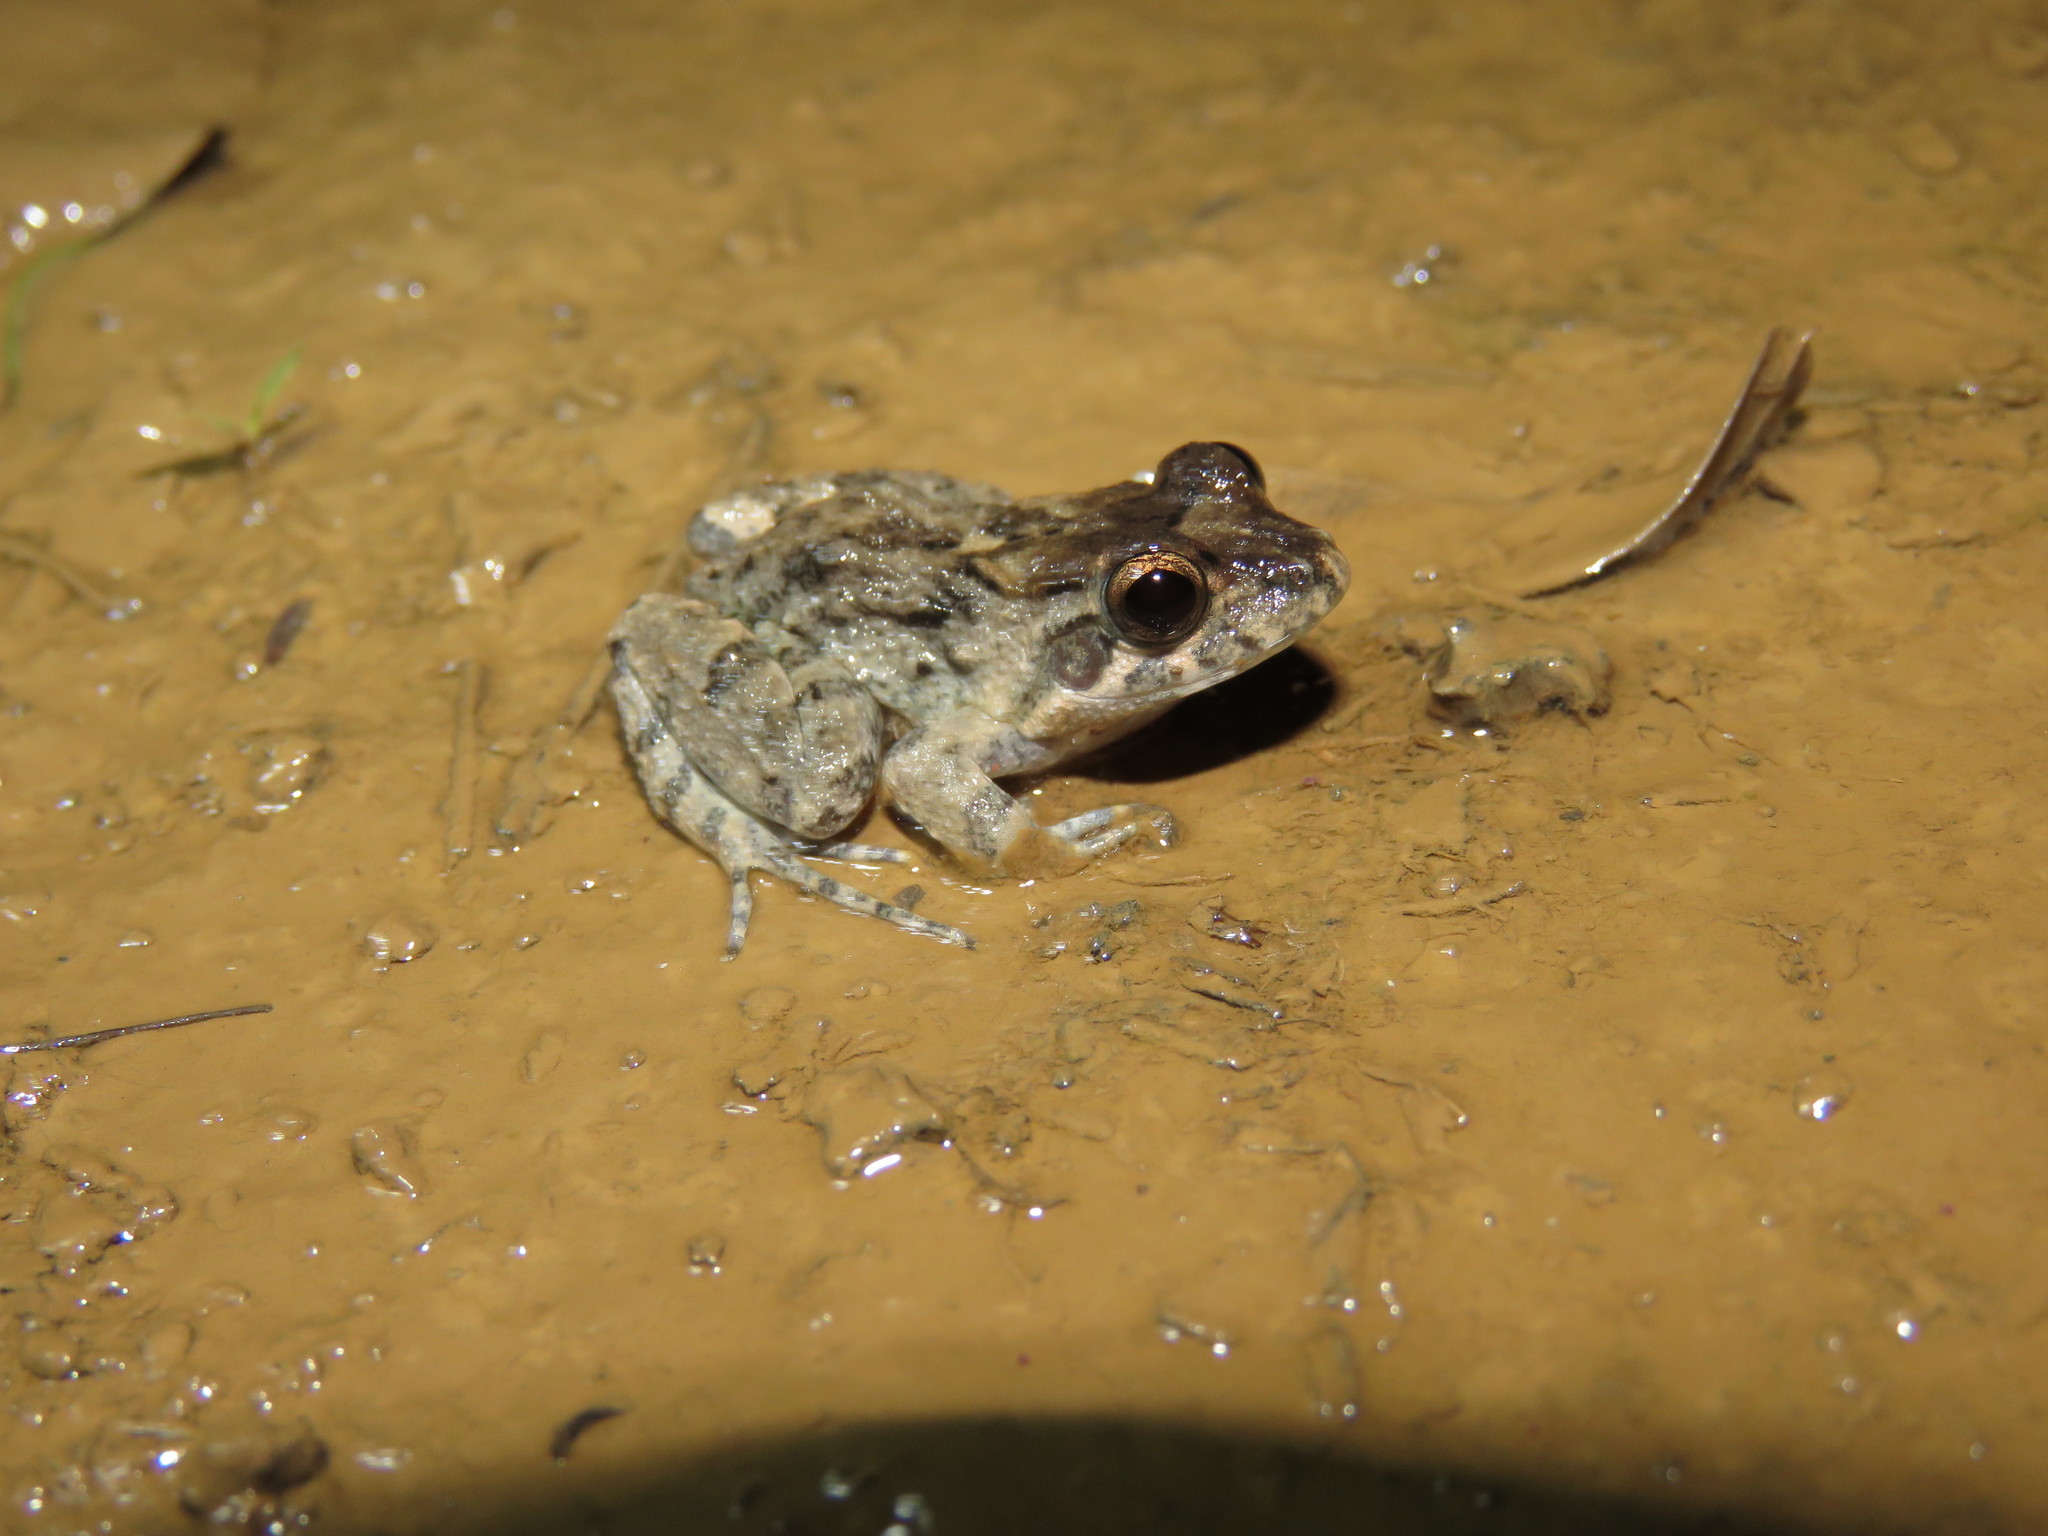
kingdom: Animalia
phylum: Chordata
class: Amphibia
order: Anura
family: Leptodactylidae
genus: Leptodactylus
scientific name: Leptodactylus leptodactyloides
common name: Common thin-toed frog
